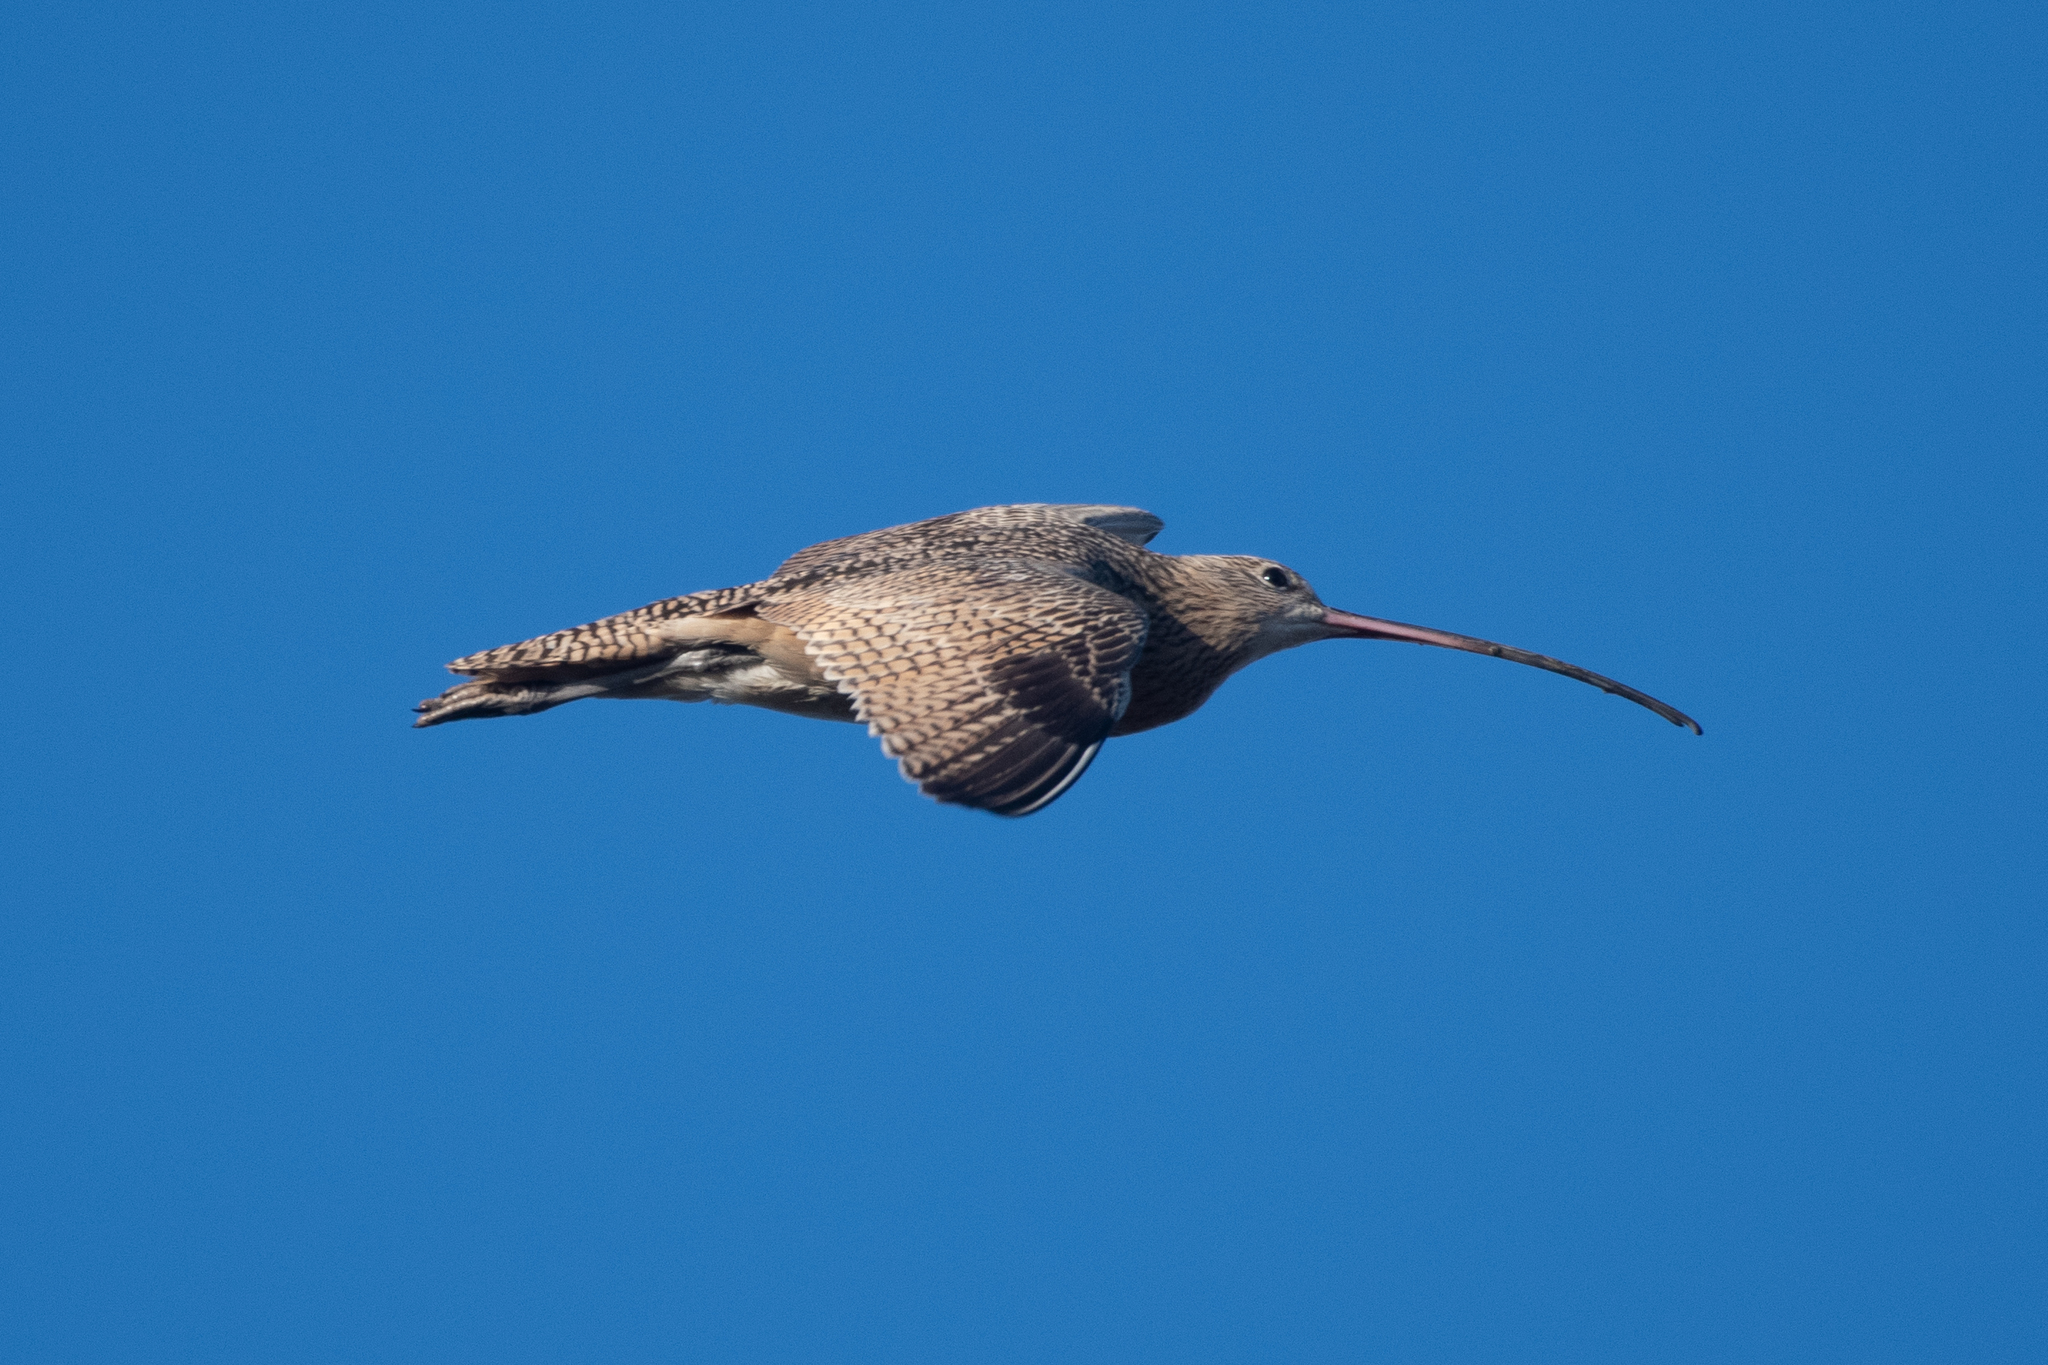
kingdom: Animalia
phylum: Chordata
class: Aves
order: Charadriiformes
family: Scolopacidae
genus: Numenius
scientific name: Numenius americanus
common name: Long-billed curlew
